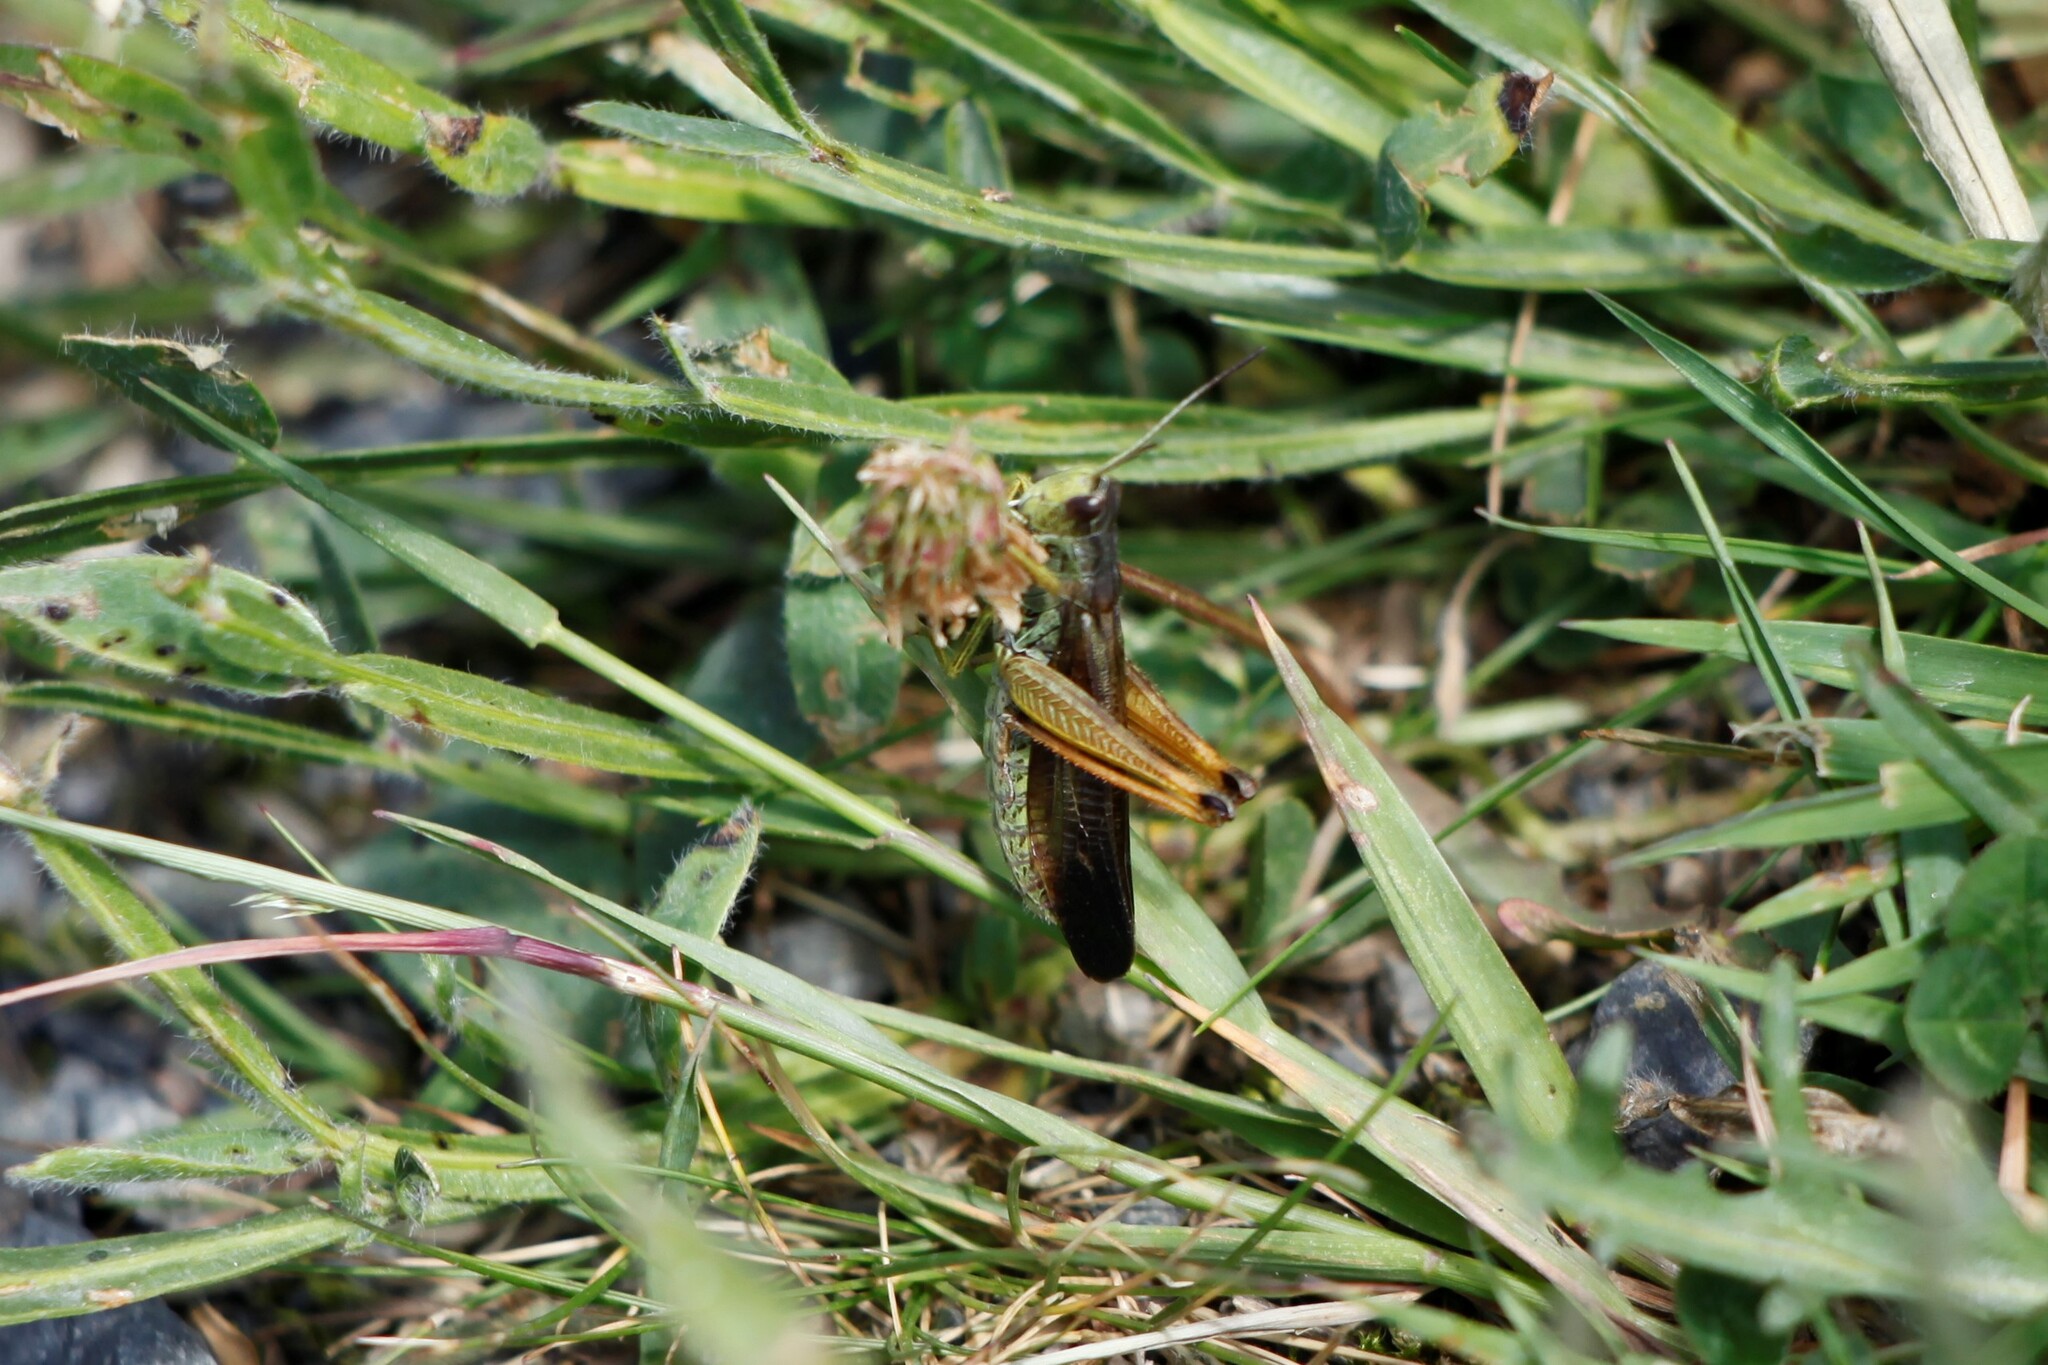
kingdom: Animalia
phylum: Arthropoda
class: Insecta
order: Orthoptera
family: Acrididae
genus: Stauroderus
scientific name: Stauroderus scalaris
